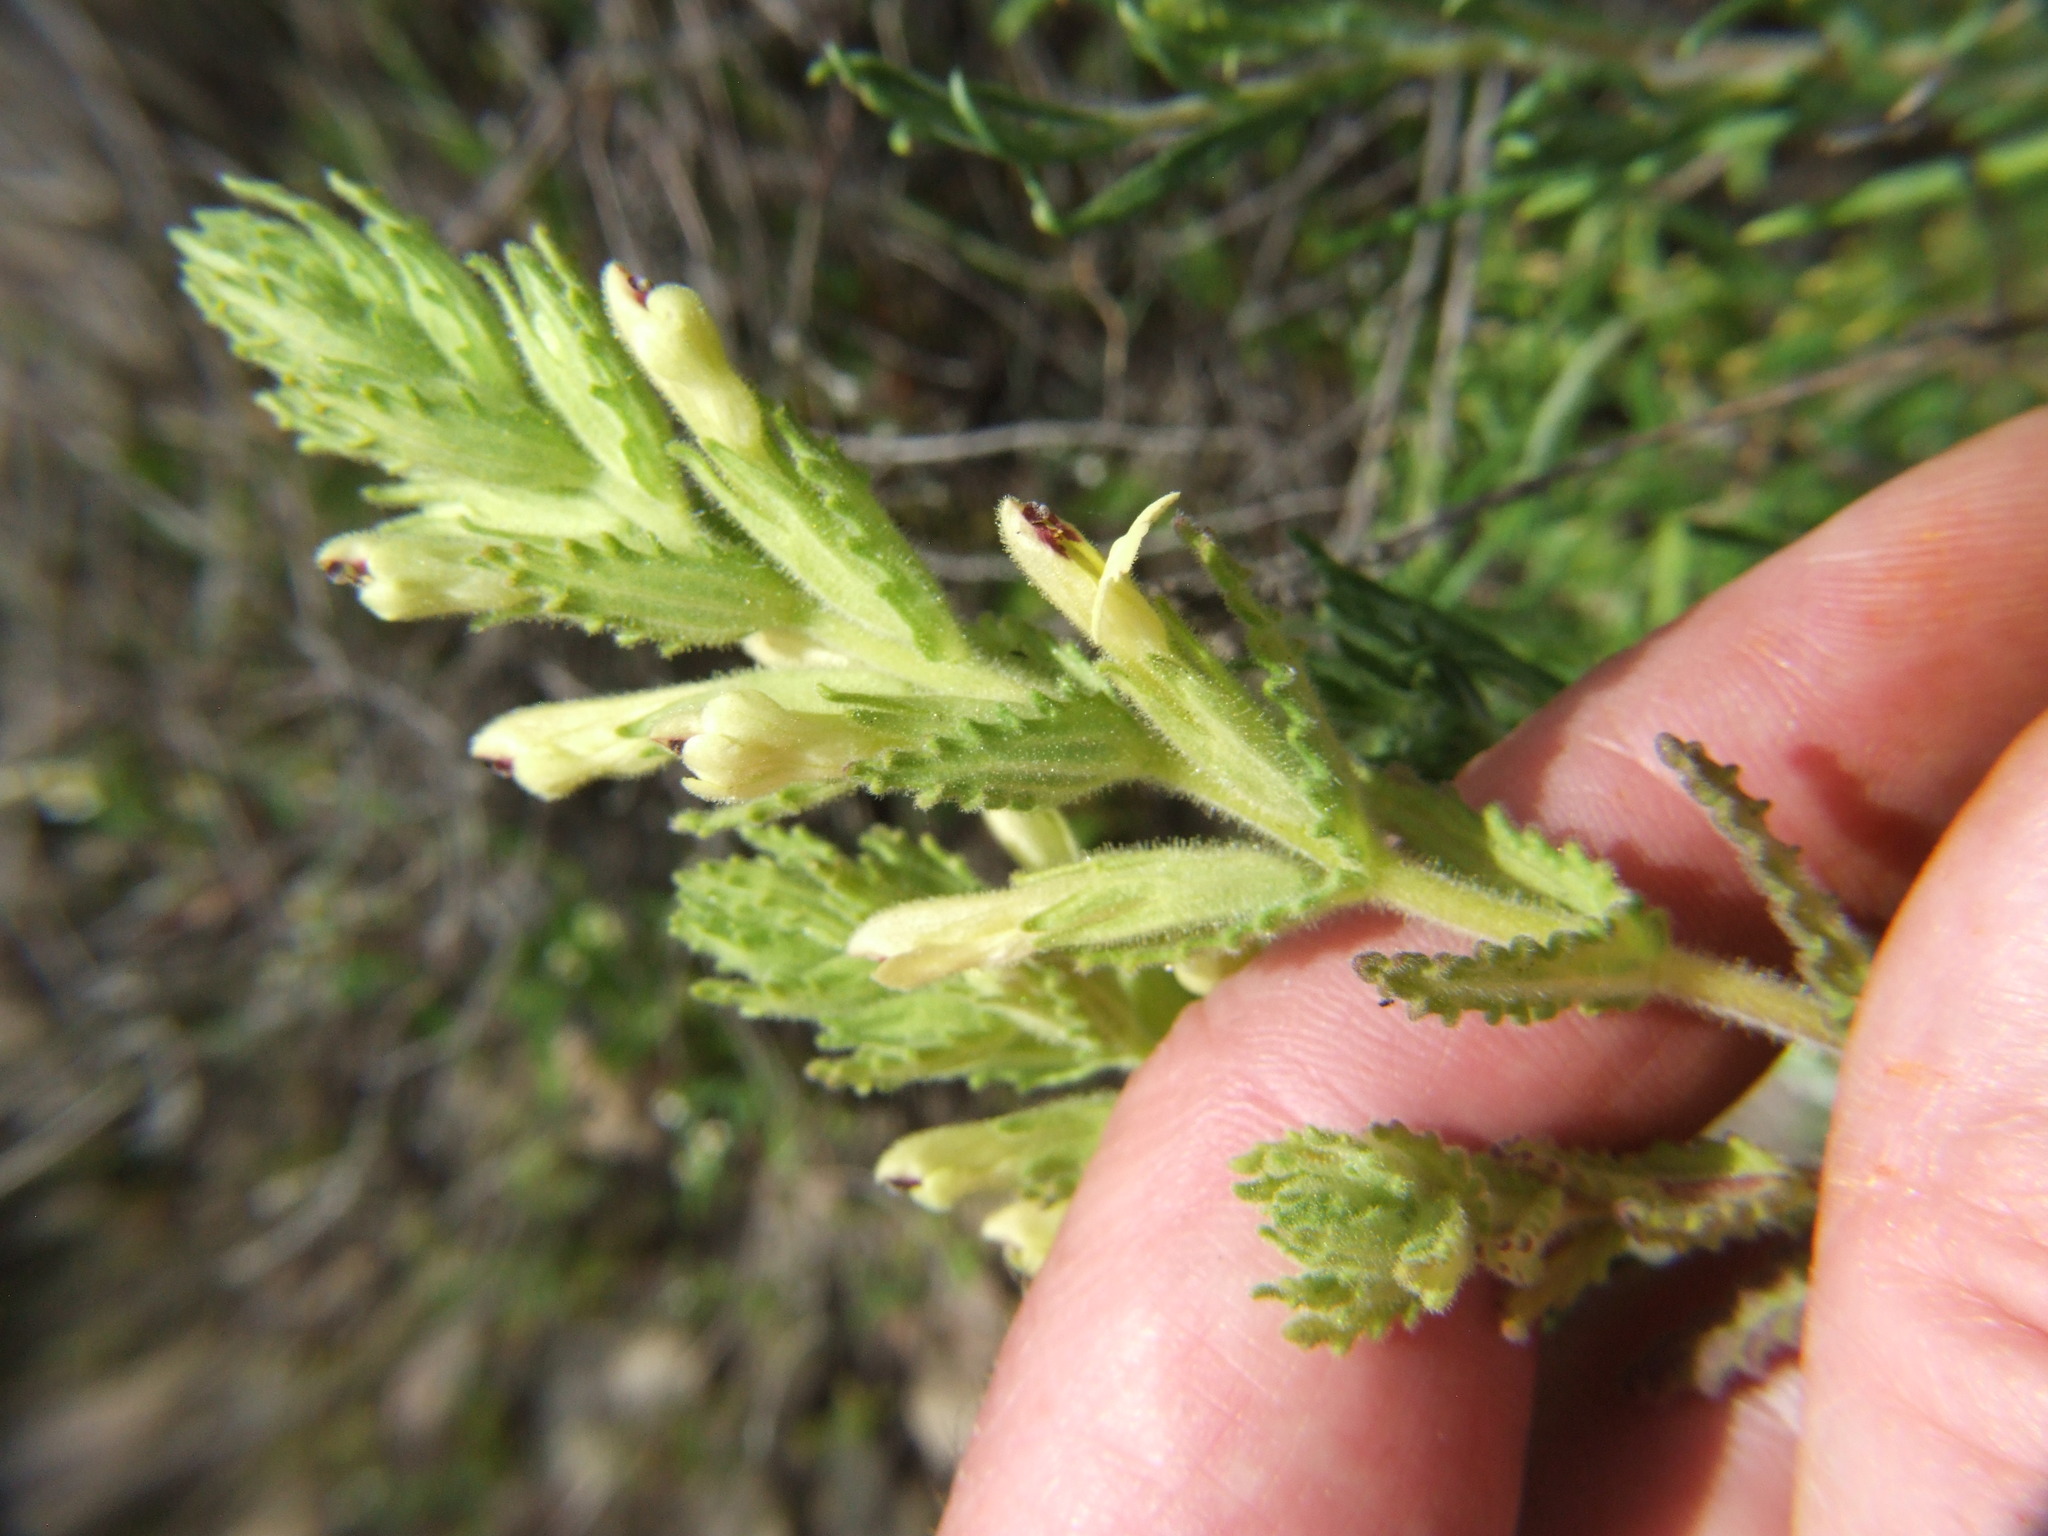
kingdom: Plantae
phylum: Tracheophyta
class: Magnoliopsida
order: Lamiales
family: Orobanchaceae
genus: Neobartsia
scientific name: Neobartsia serrata
